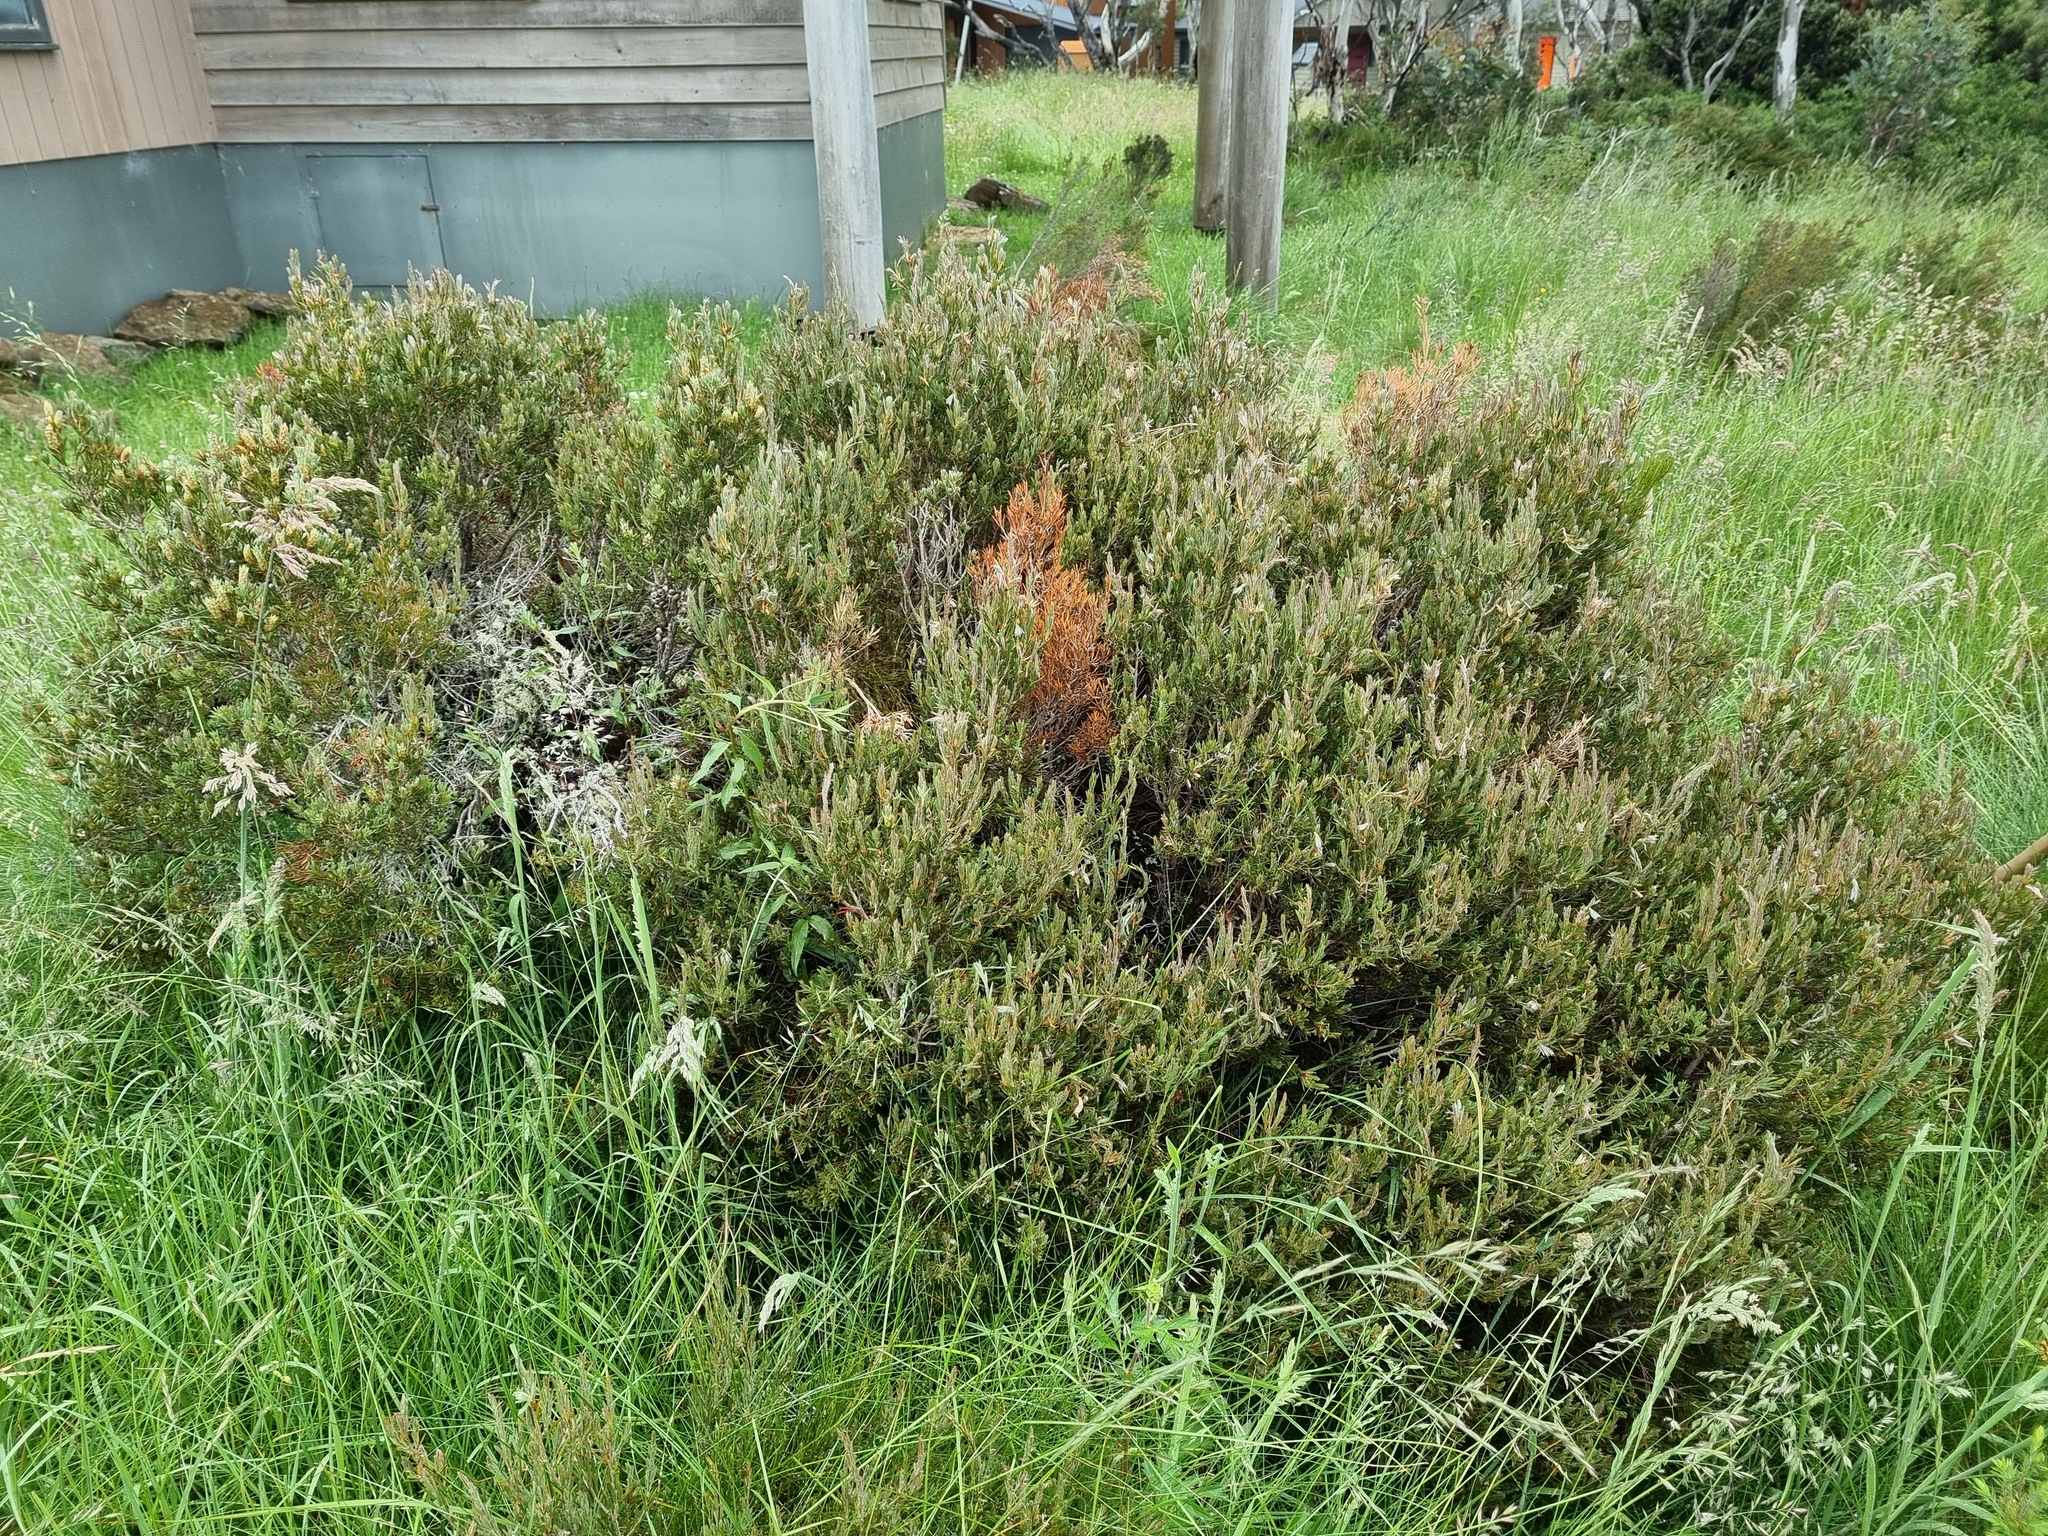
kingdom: Plantae
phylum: Tracheophyta
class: Magnoliopsida
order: Myrtales
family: Myrtaceae
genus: Callistemon
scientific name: Callistemon pityoides
